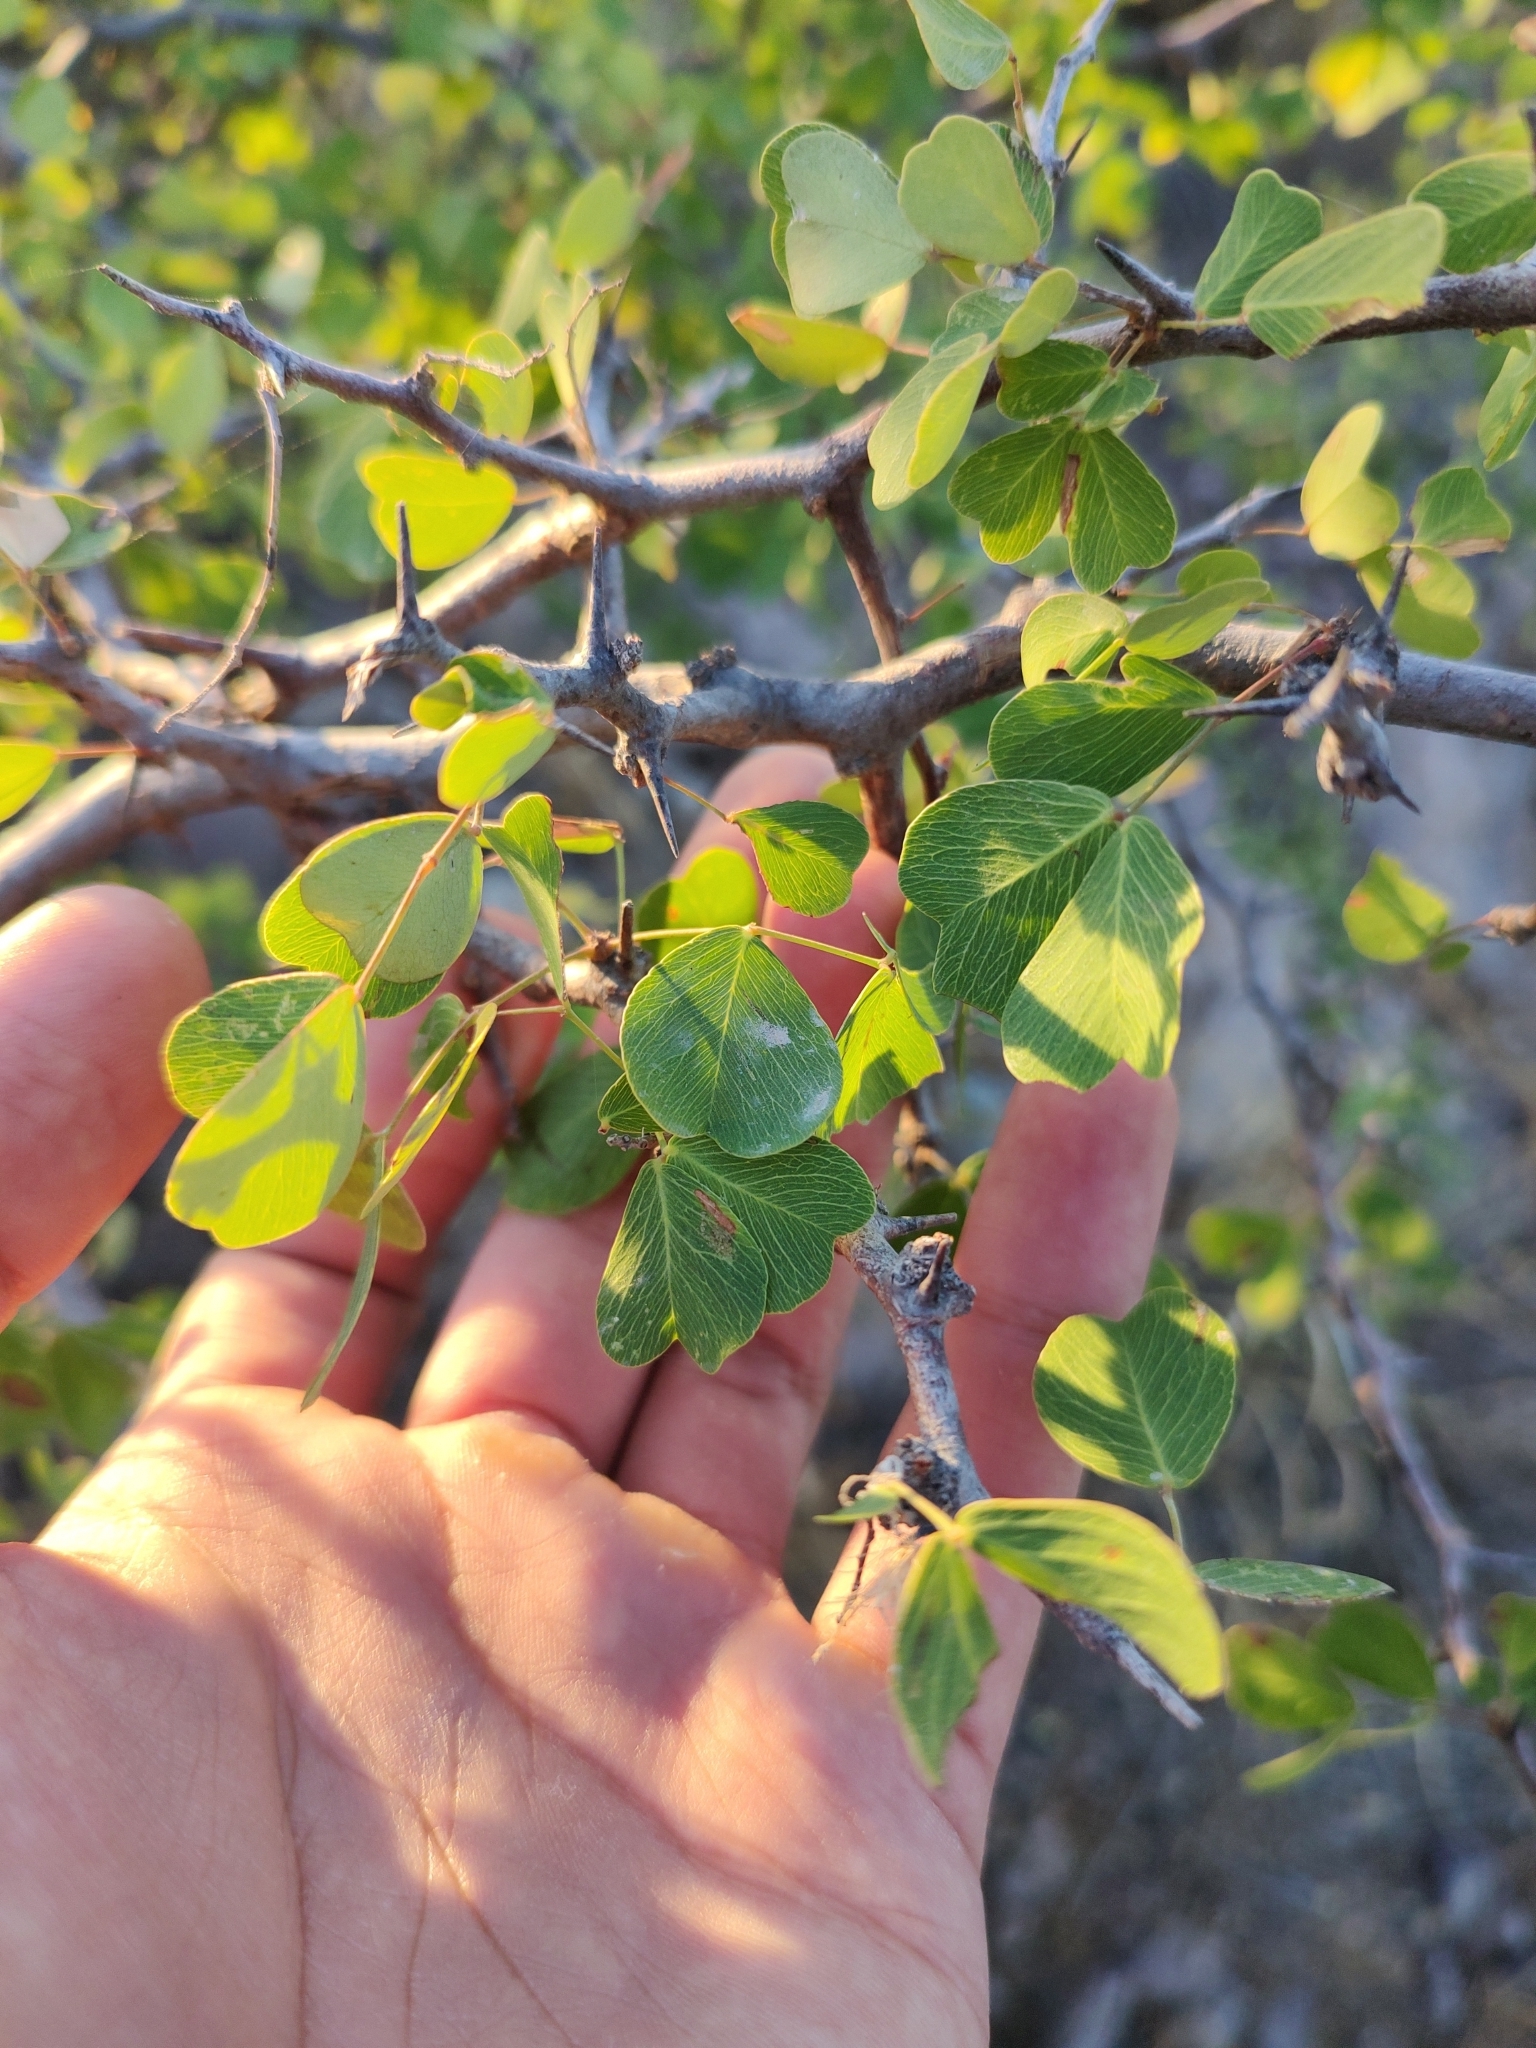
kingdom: Plantae
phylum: Tracheophyta
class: Magnoliopsida
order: Fabales
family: Fabaceae
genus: Haematoxylum
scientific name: Haematoxylum brasiletto
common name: Peachwood
